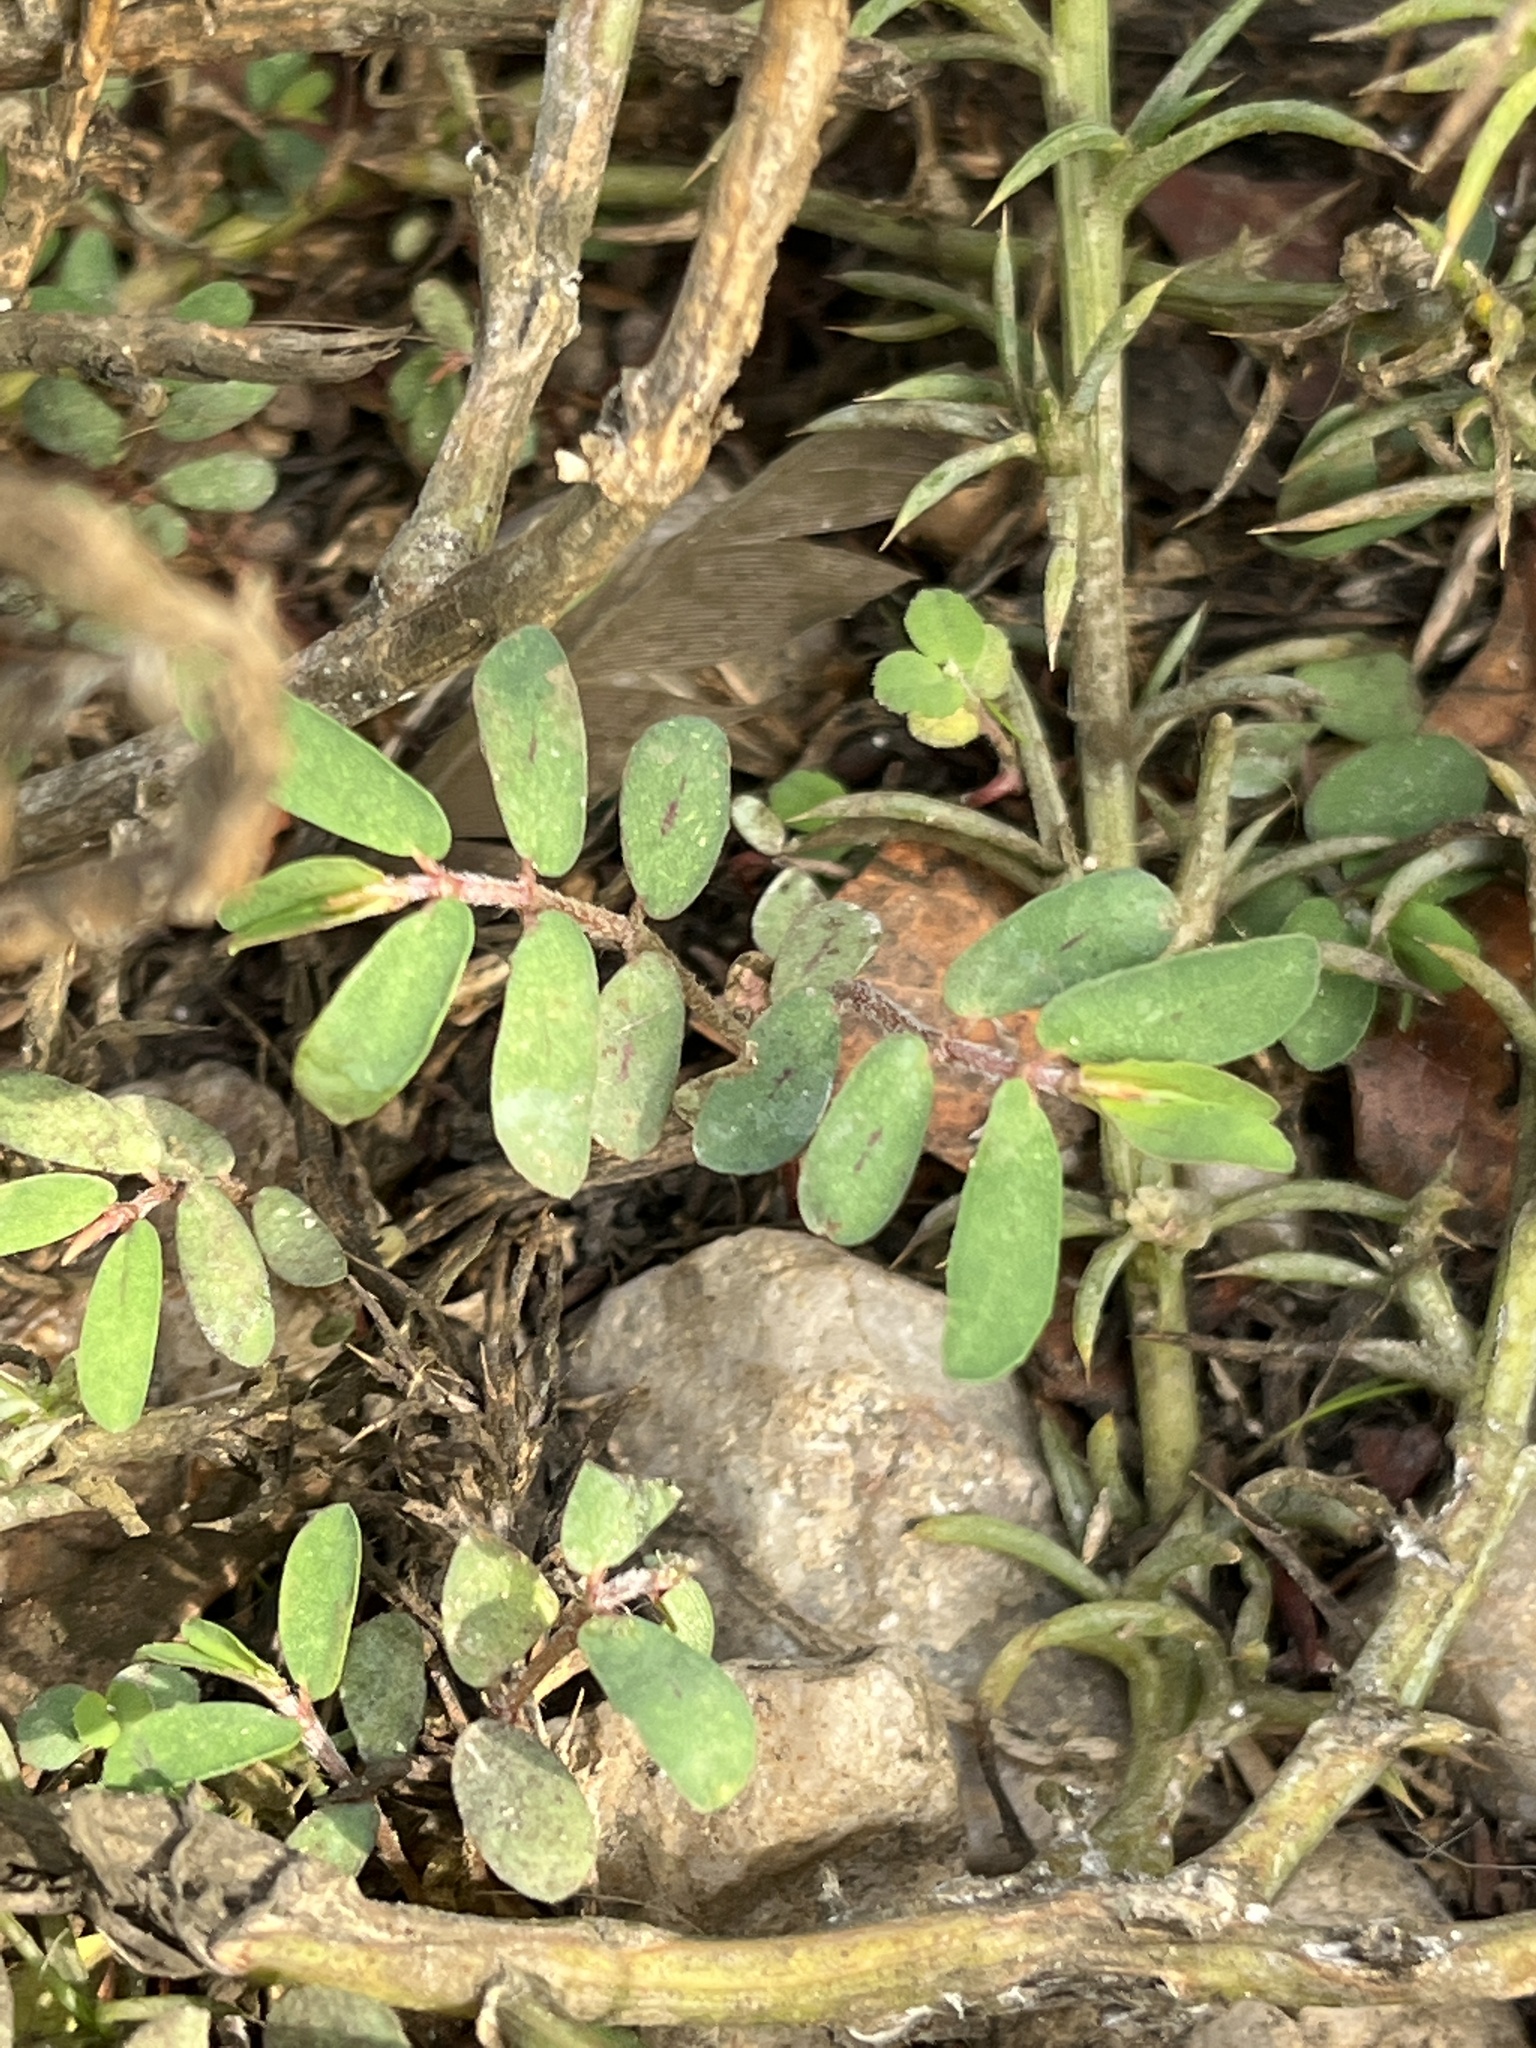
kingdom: Plantae
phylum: Tracheophyta
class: Magnoliopsida
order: Malpighiales
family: Euphorbiaceae
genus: Euphorbia
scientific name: Euphorbia maculata
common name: Spotted spurge
